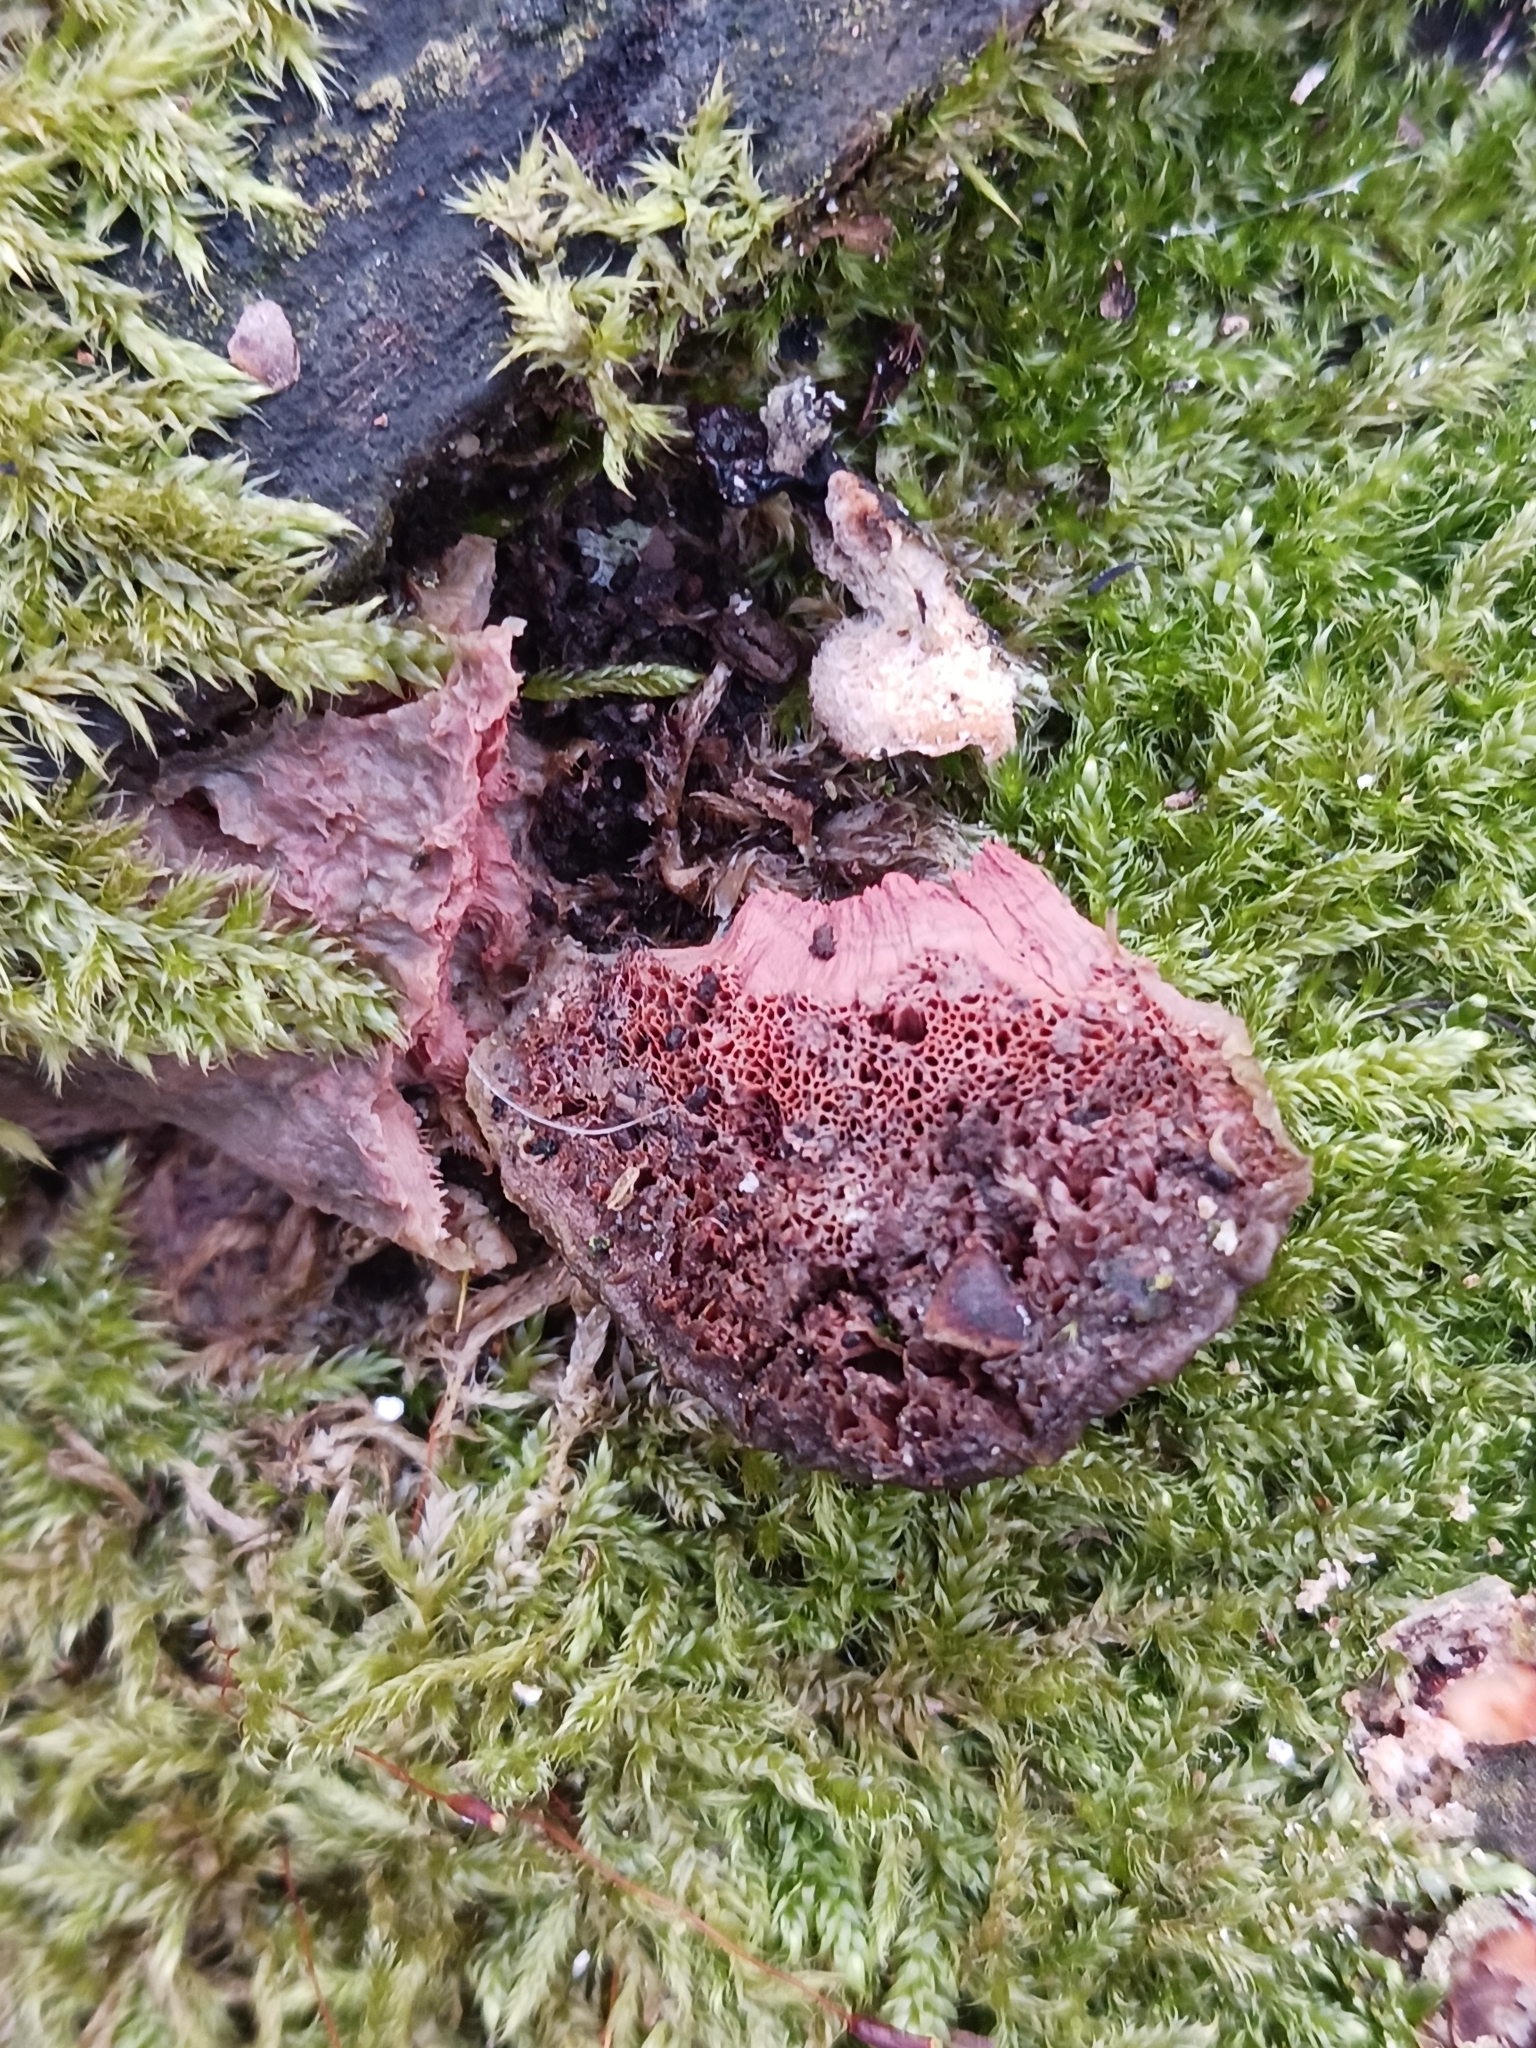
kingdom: Fungi
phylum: Basidiomycota
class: Agaricomycetes
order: Polyporales
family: Phanerochaetaceae
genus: Hapalopilus
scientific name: Hapalopilus rutilans
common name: Tender nesting polypore
